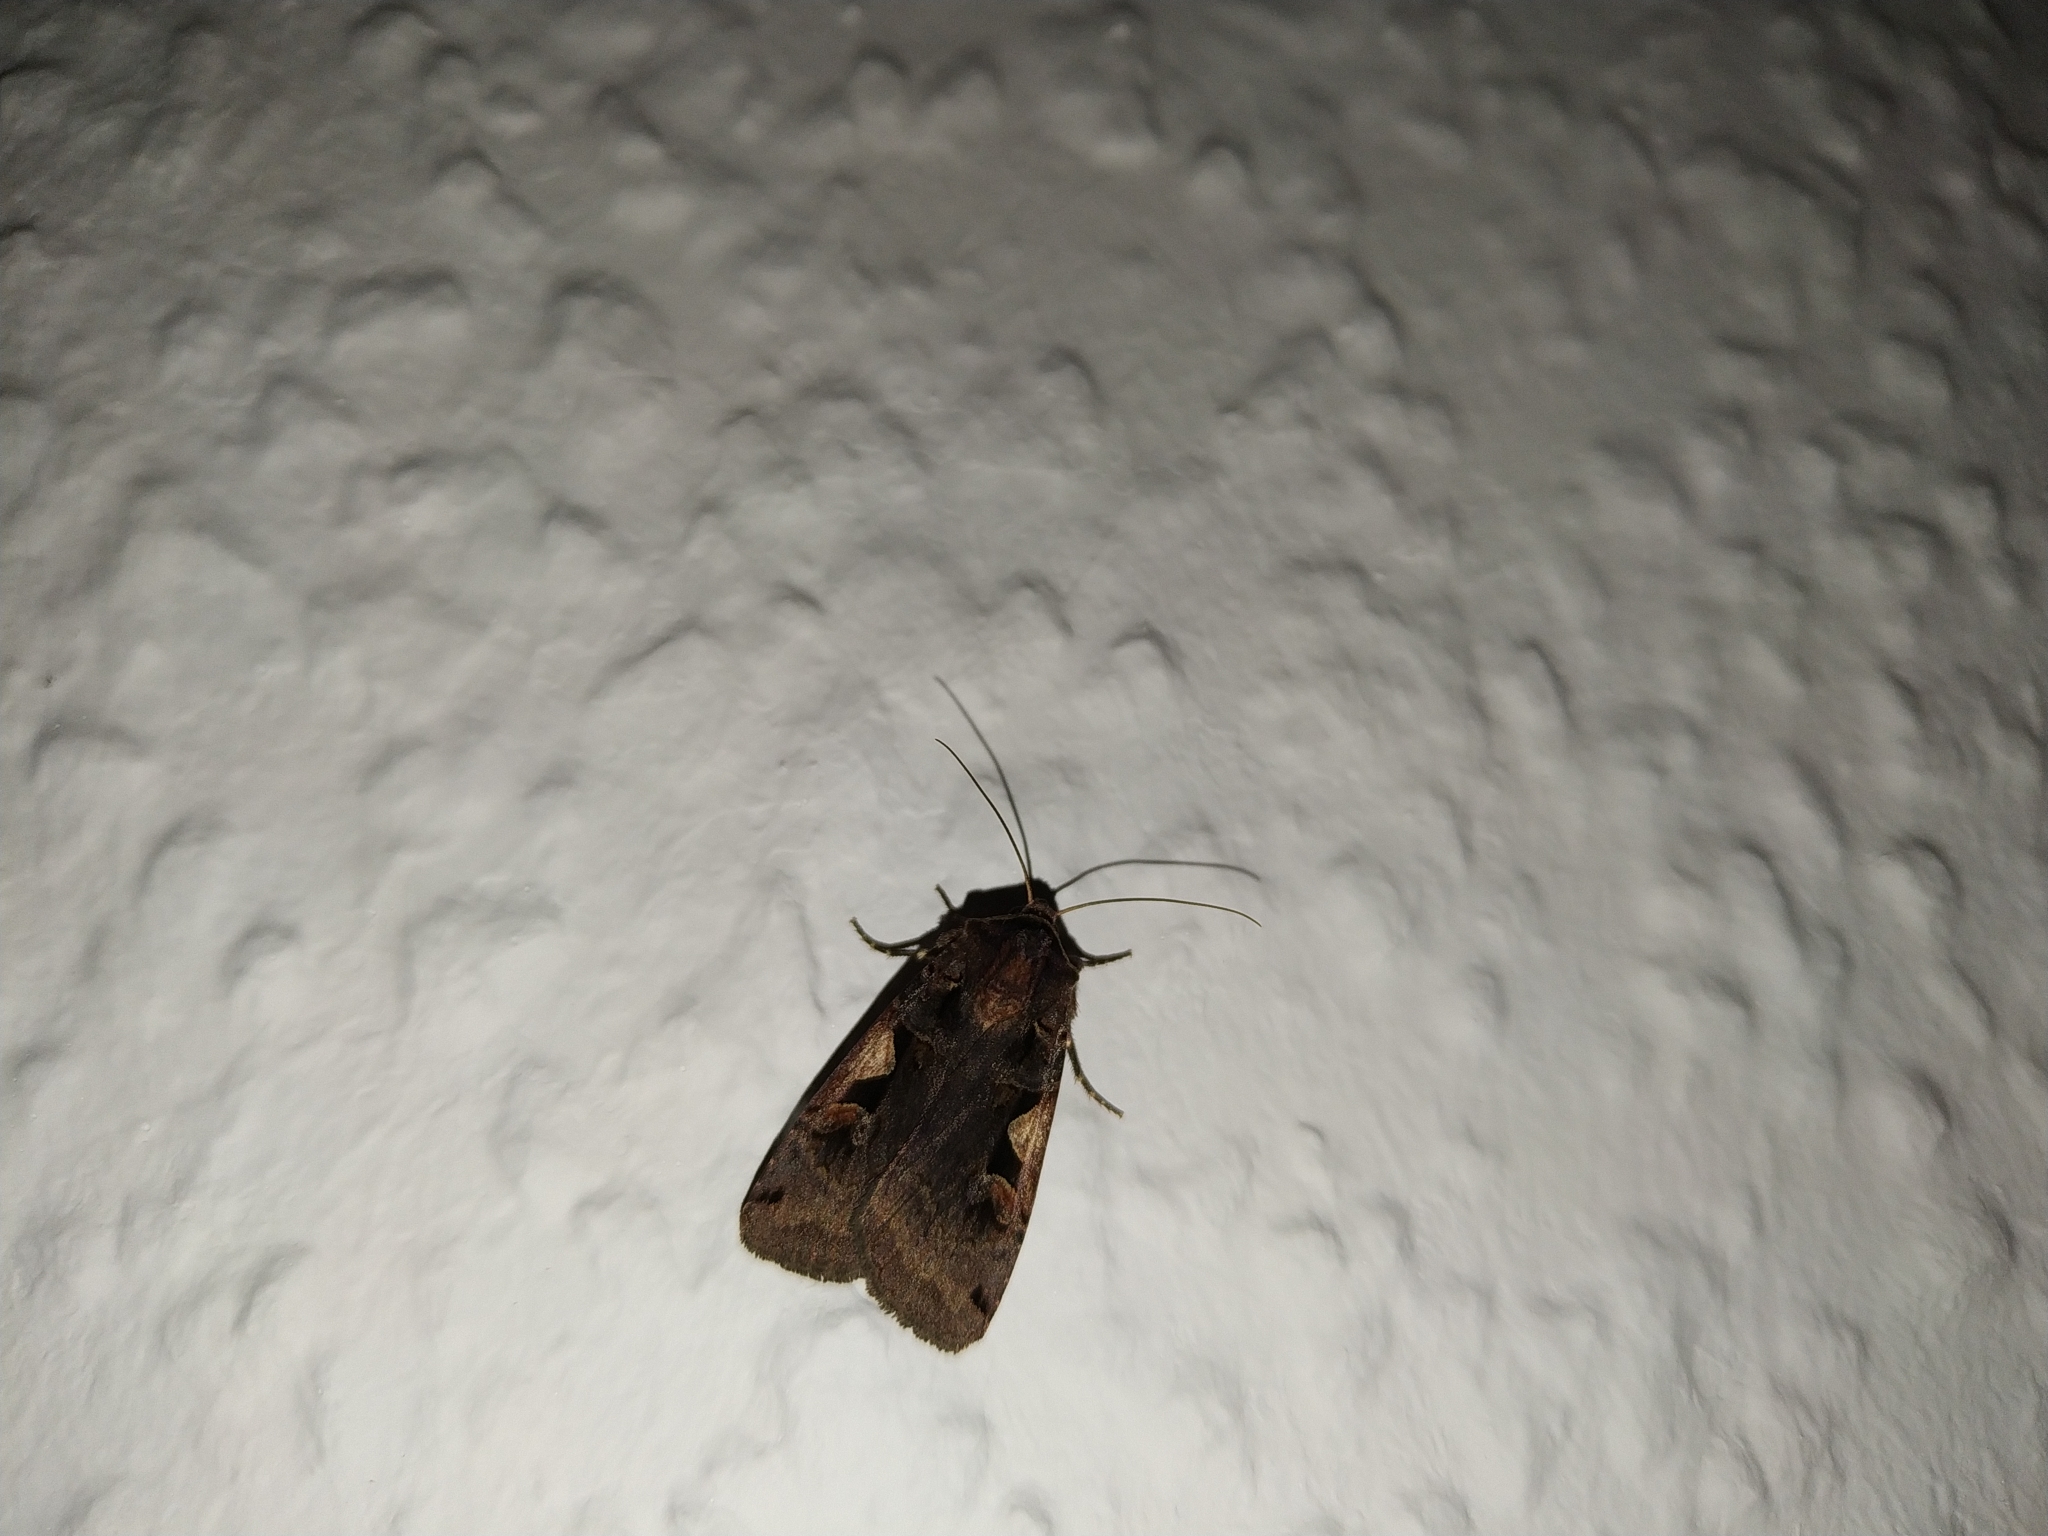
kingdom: Animalia
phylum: Arthropoda
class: Insecta
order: Lepidoptera
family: Noctuidae
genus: Xestia
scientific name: Xestia c-nigrum
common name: Setaceous hebrew character
